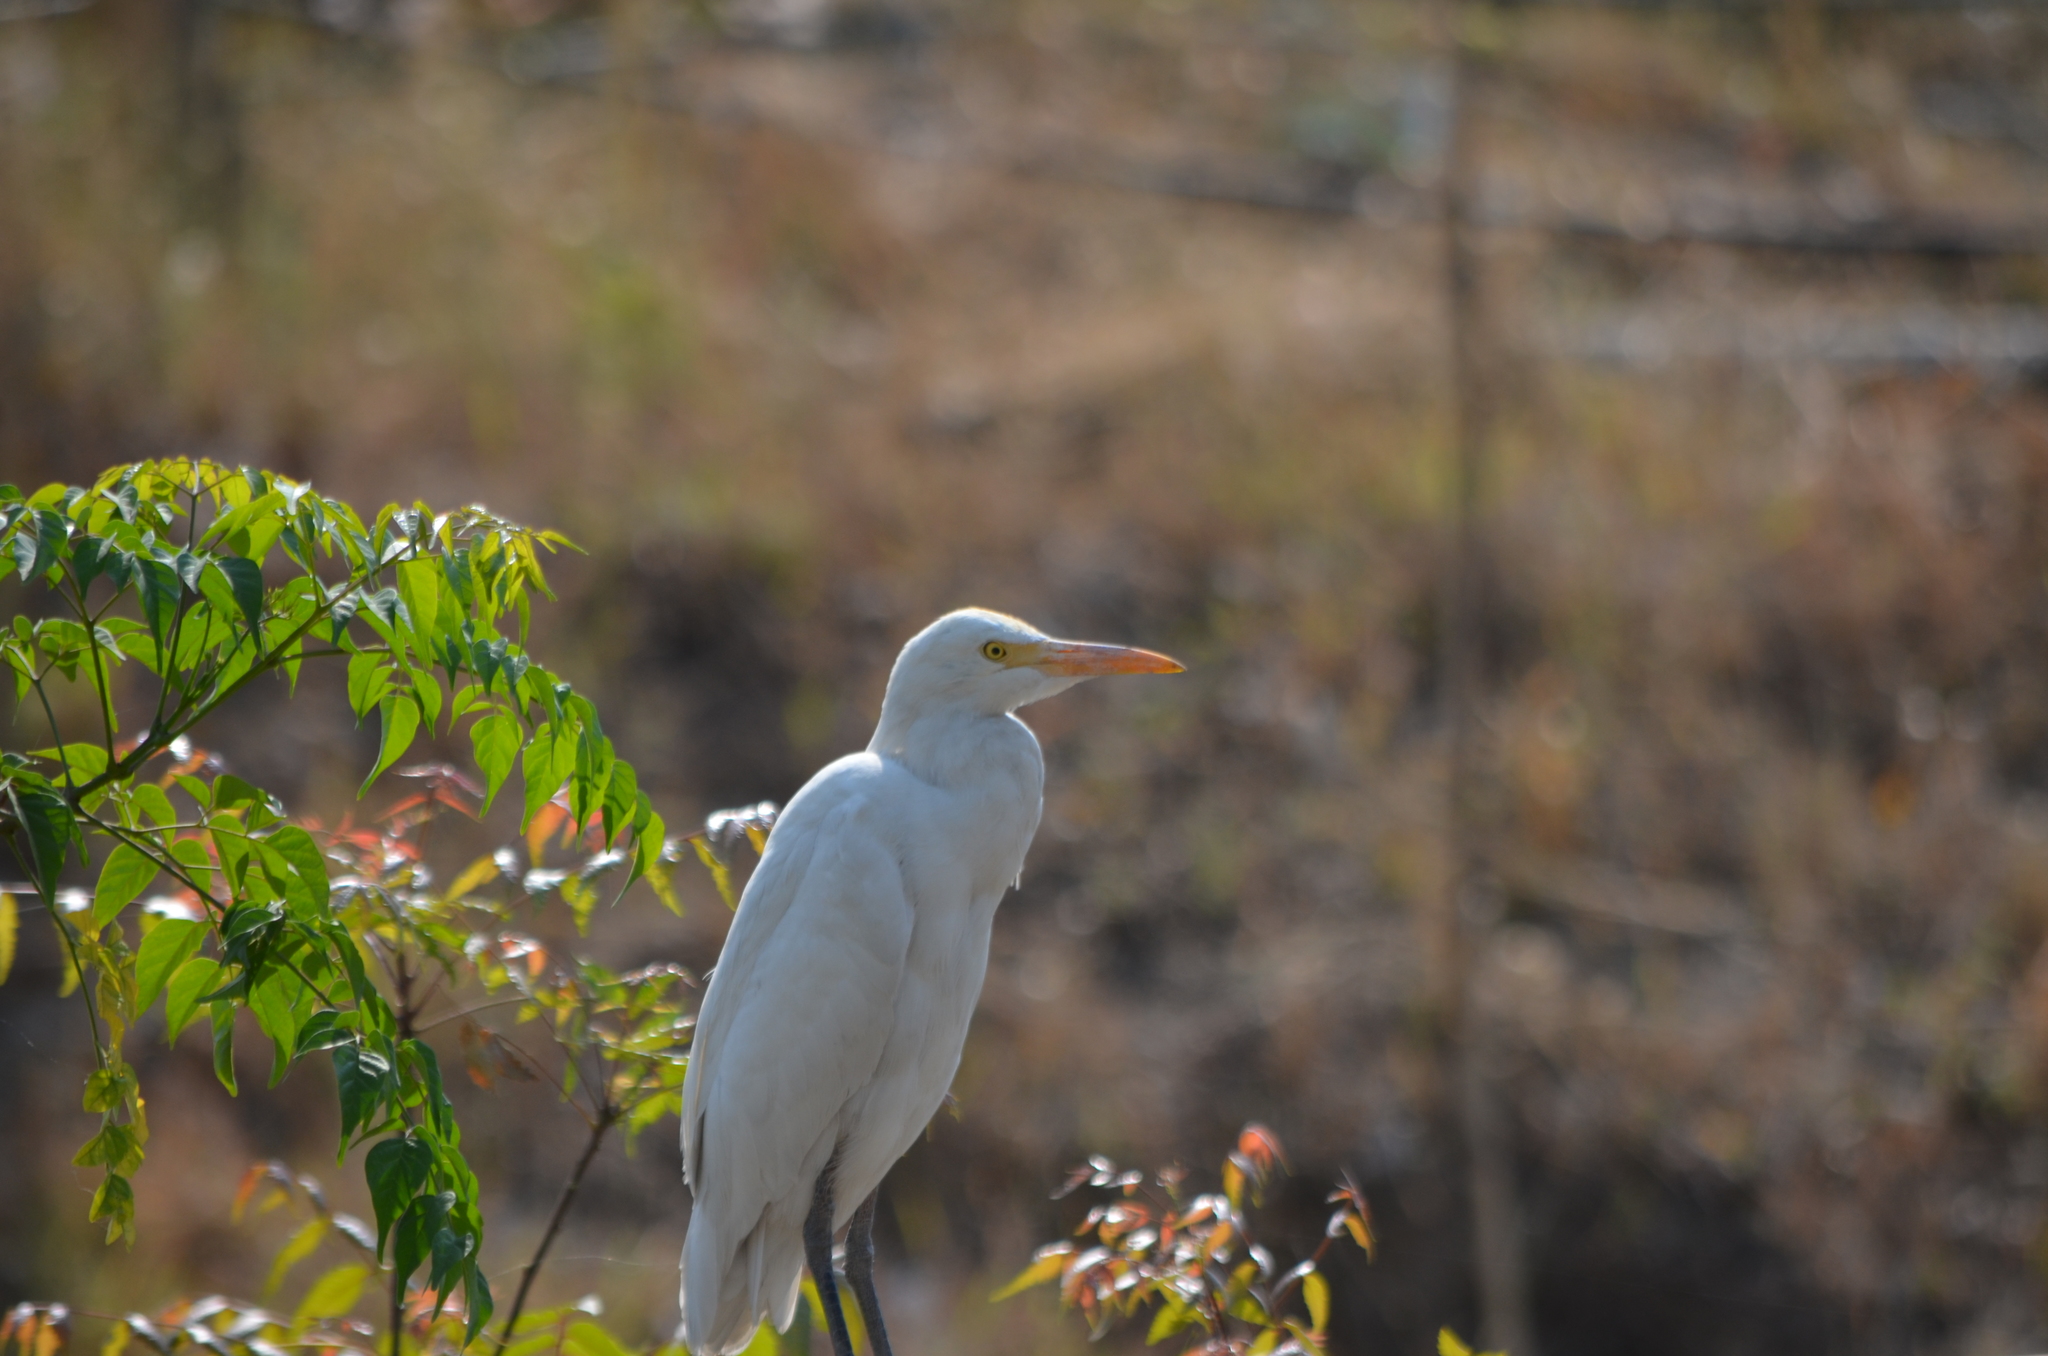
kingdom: Animalia
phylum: Chordata
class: Aves
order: Pelecaniformes
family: Ardeidae
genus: Bubulcus
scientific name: Bubulcus coromandus
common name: Eastern cattle egret
